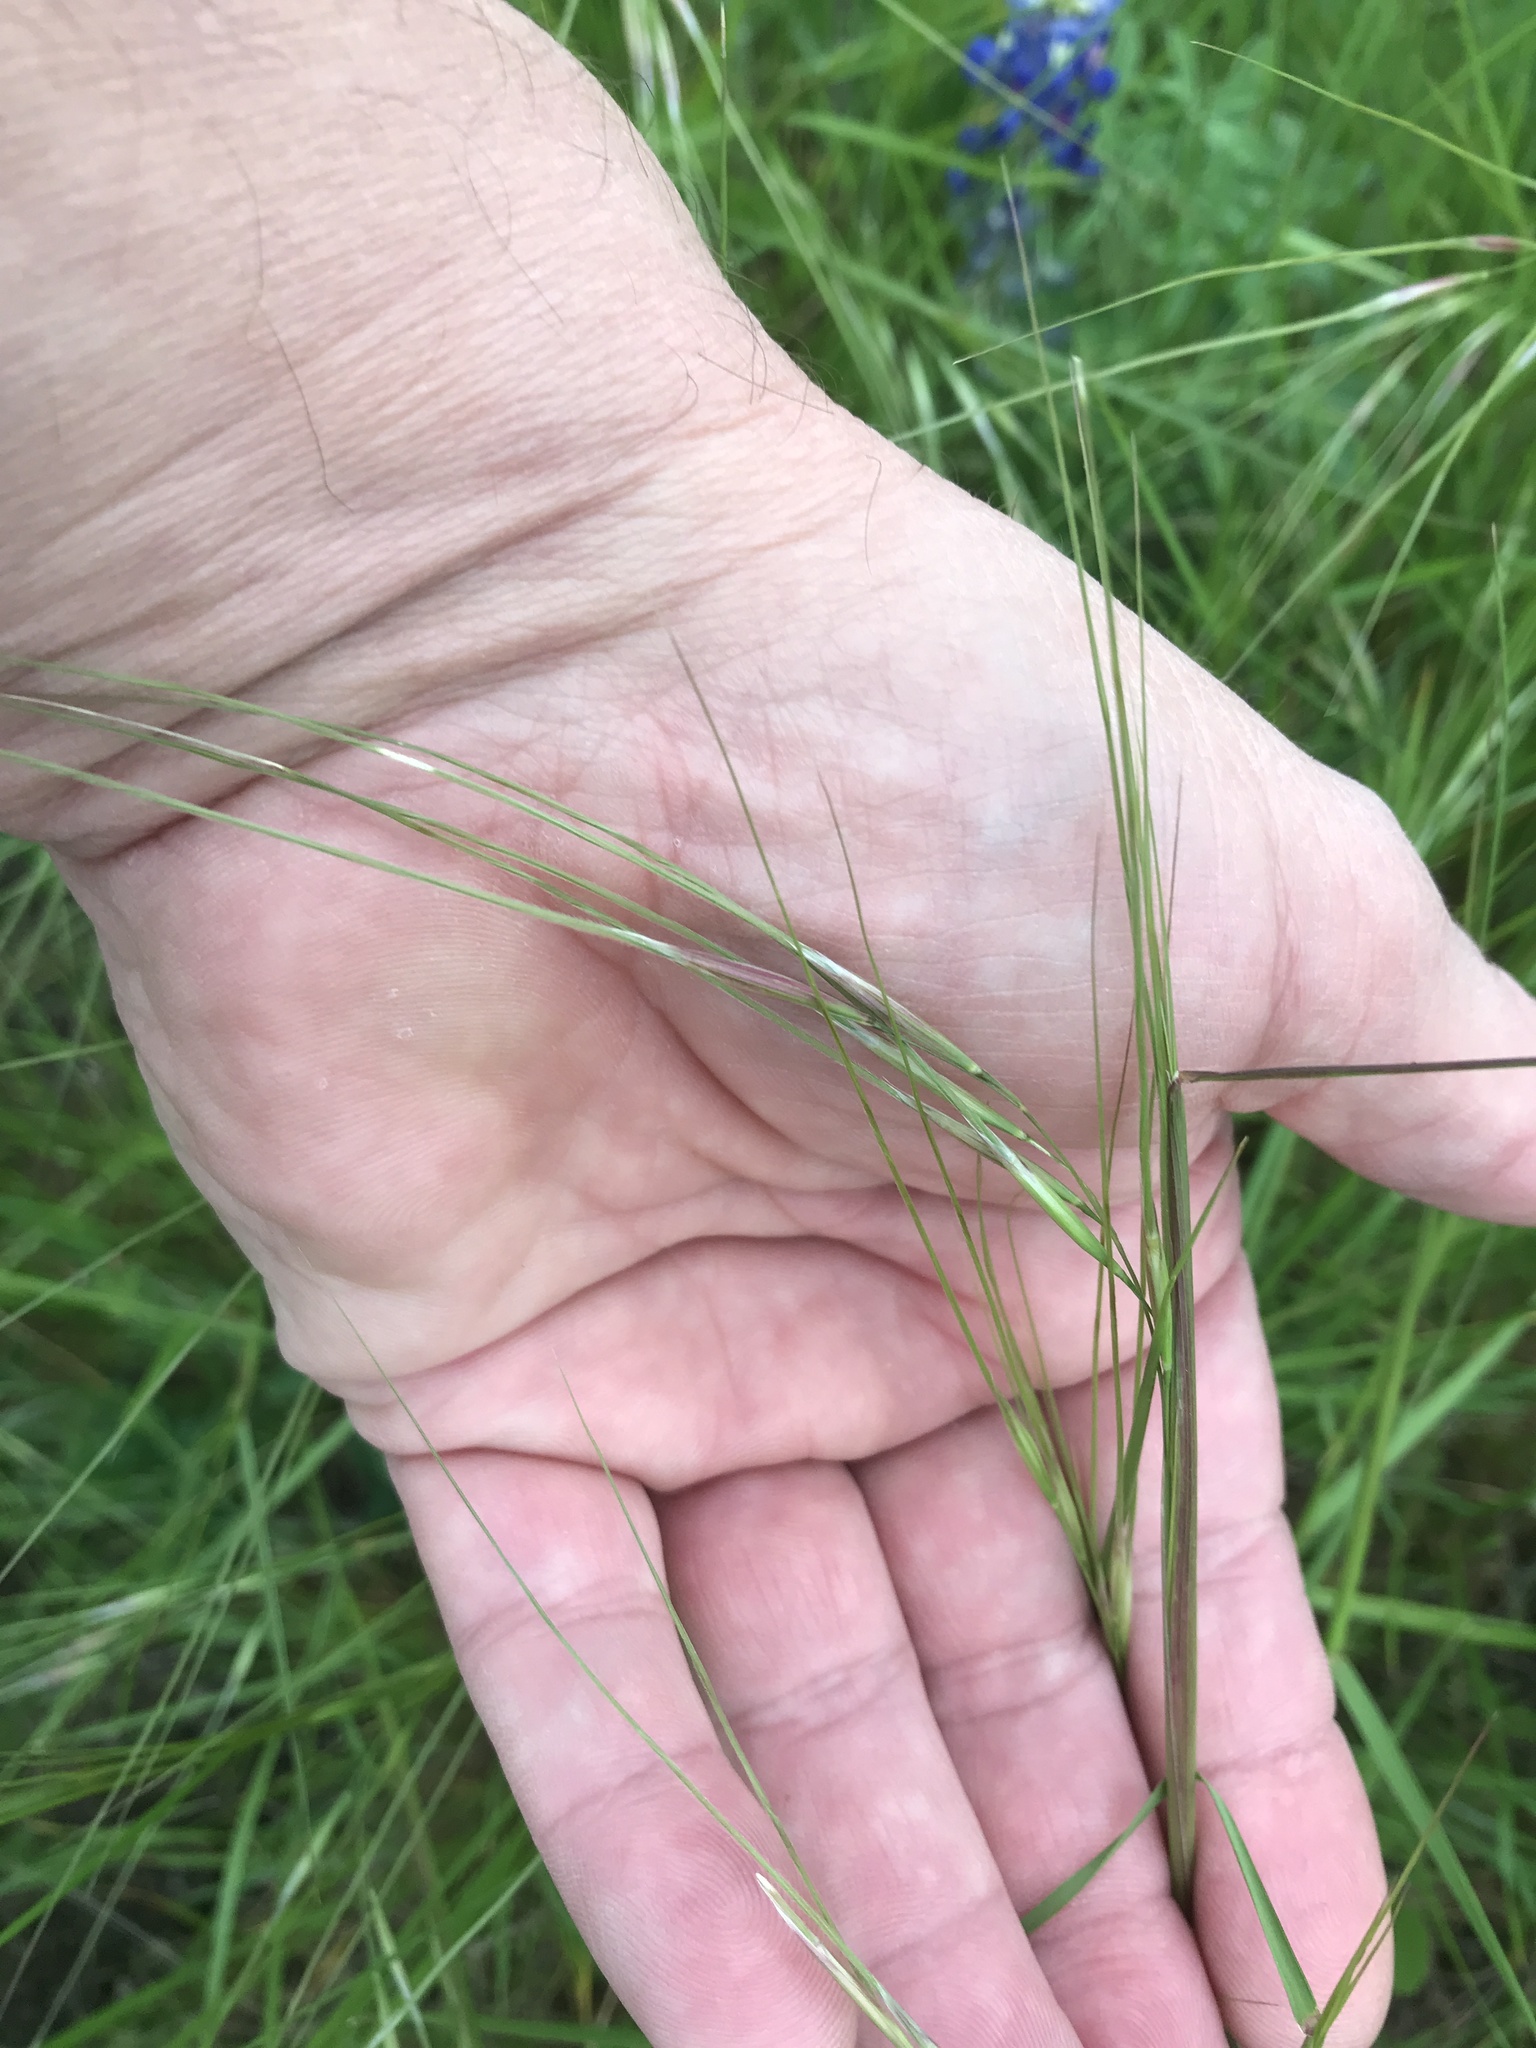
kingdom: Plantae
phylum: Tracheophyta
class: Liliopsida
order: Poales
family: Poaceae
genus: Nassella
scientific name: Nassella leucotricha
